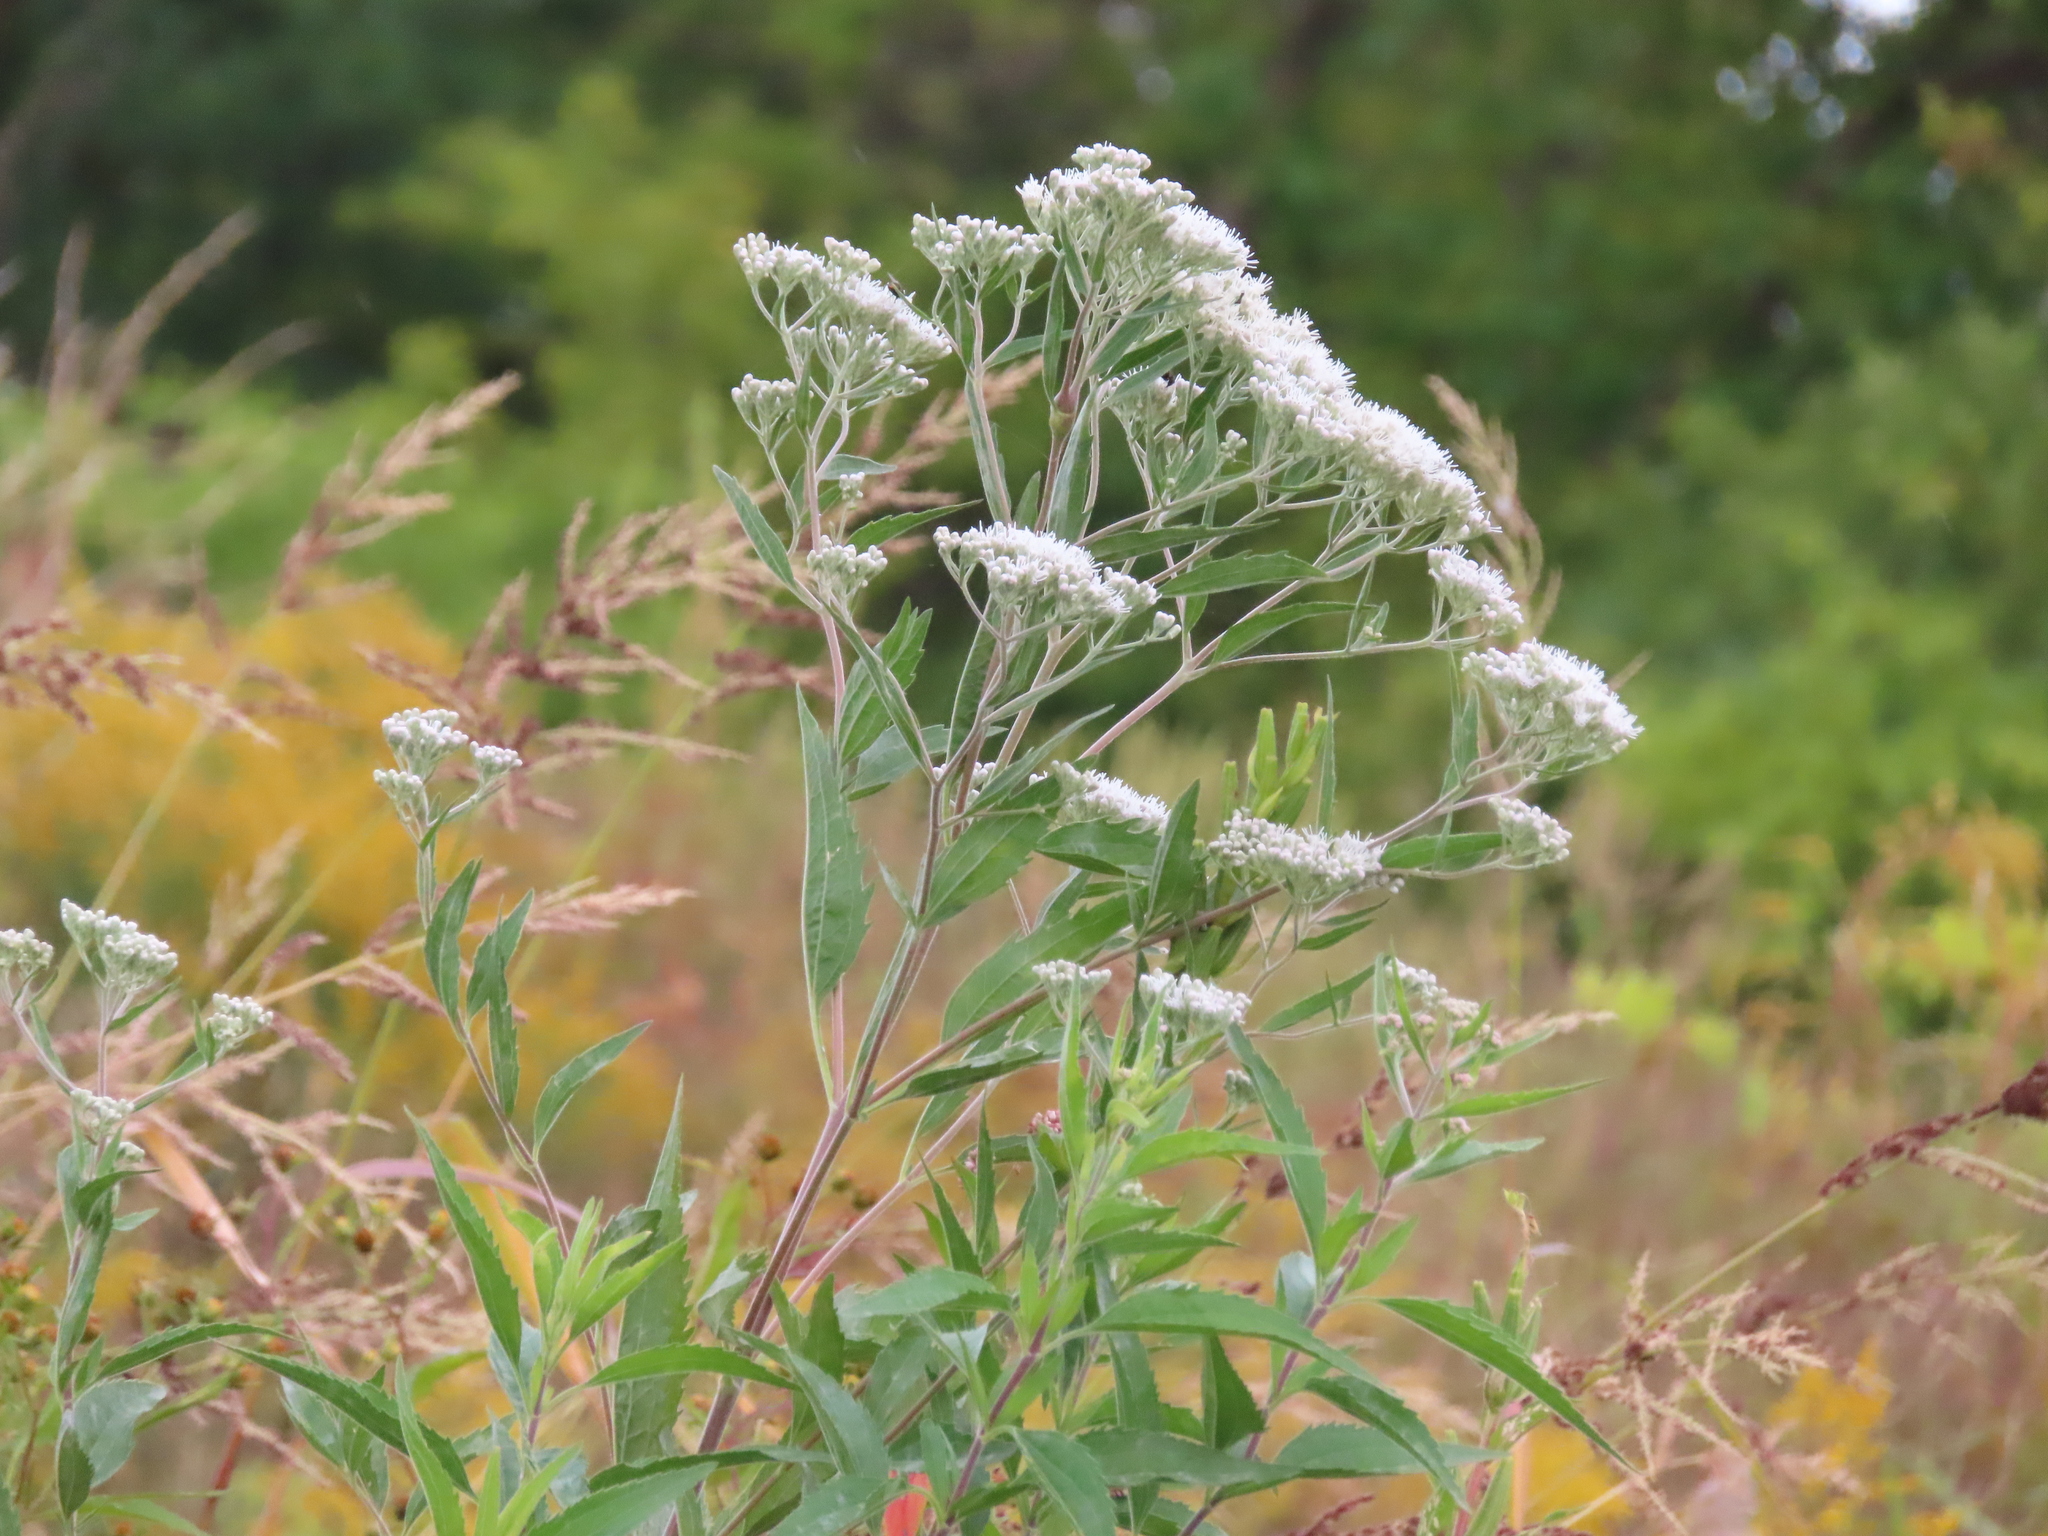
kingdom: Plantae
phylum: Tracheophyta
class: Magnoliopsida
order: Asterales
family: Asteraceae
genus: Eupatorium
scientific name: Eupatorium serotinum
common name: Late boneset
